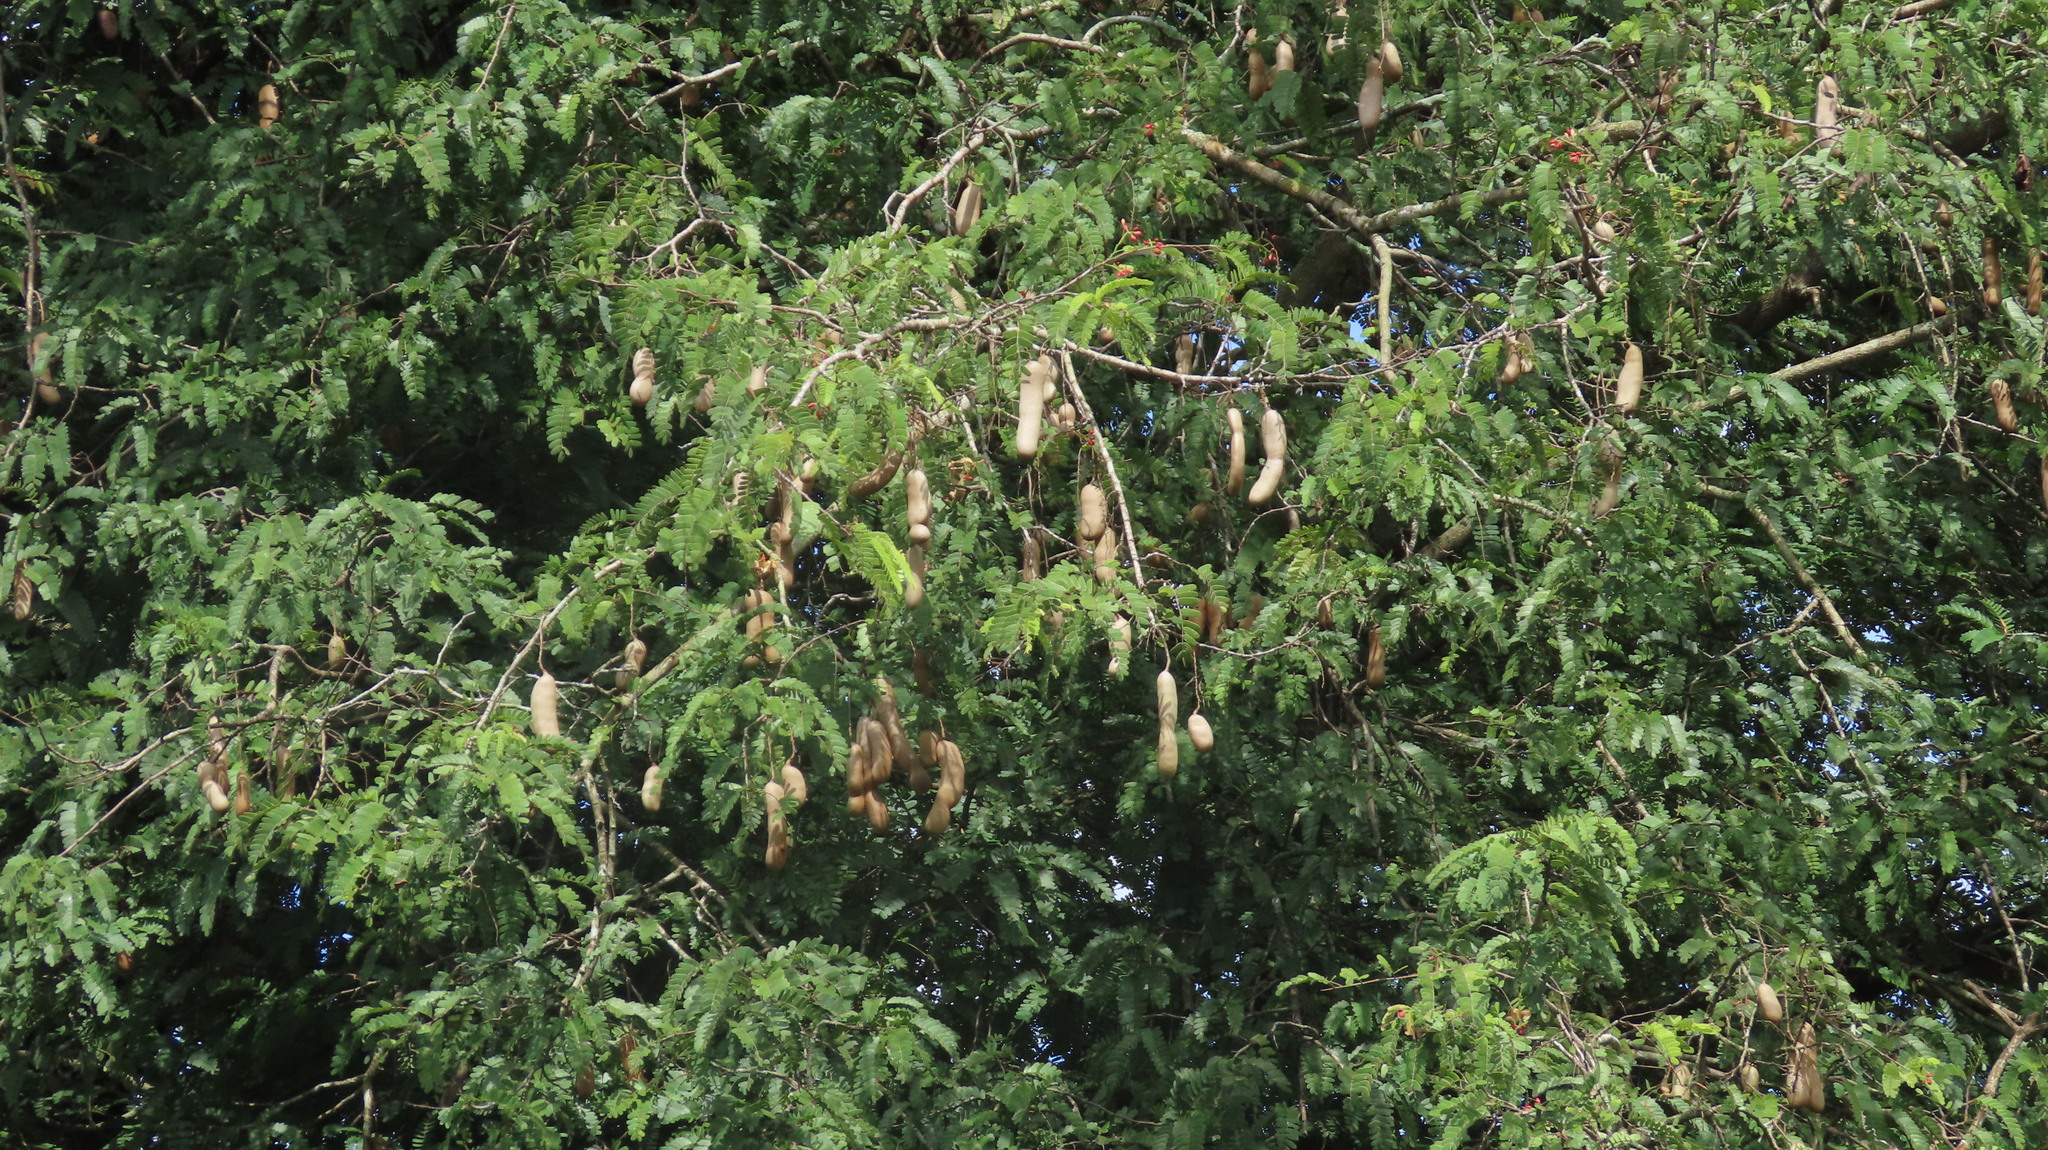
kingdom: Plantae
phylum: Tracheophyta
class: Magnoliopsida
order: Fabales
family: Fabaceae
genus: Tamarindus
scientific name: Tamarindus indica
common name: Tamarind
